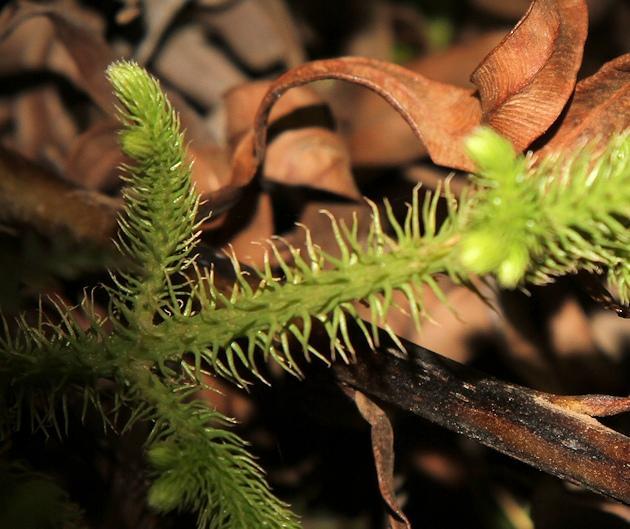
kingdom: Plantae
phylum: Tracheophyta
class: Lycopodiopsida
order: Lycopodiales
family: Lycopodiaceae
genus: Palhinhaea
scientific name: Palhinhaea cernua
